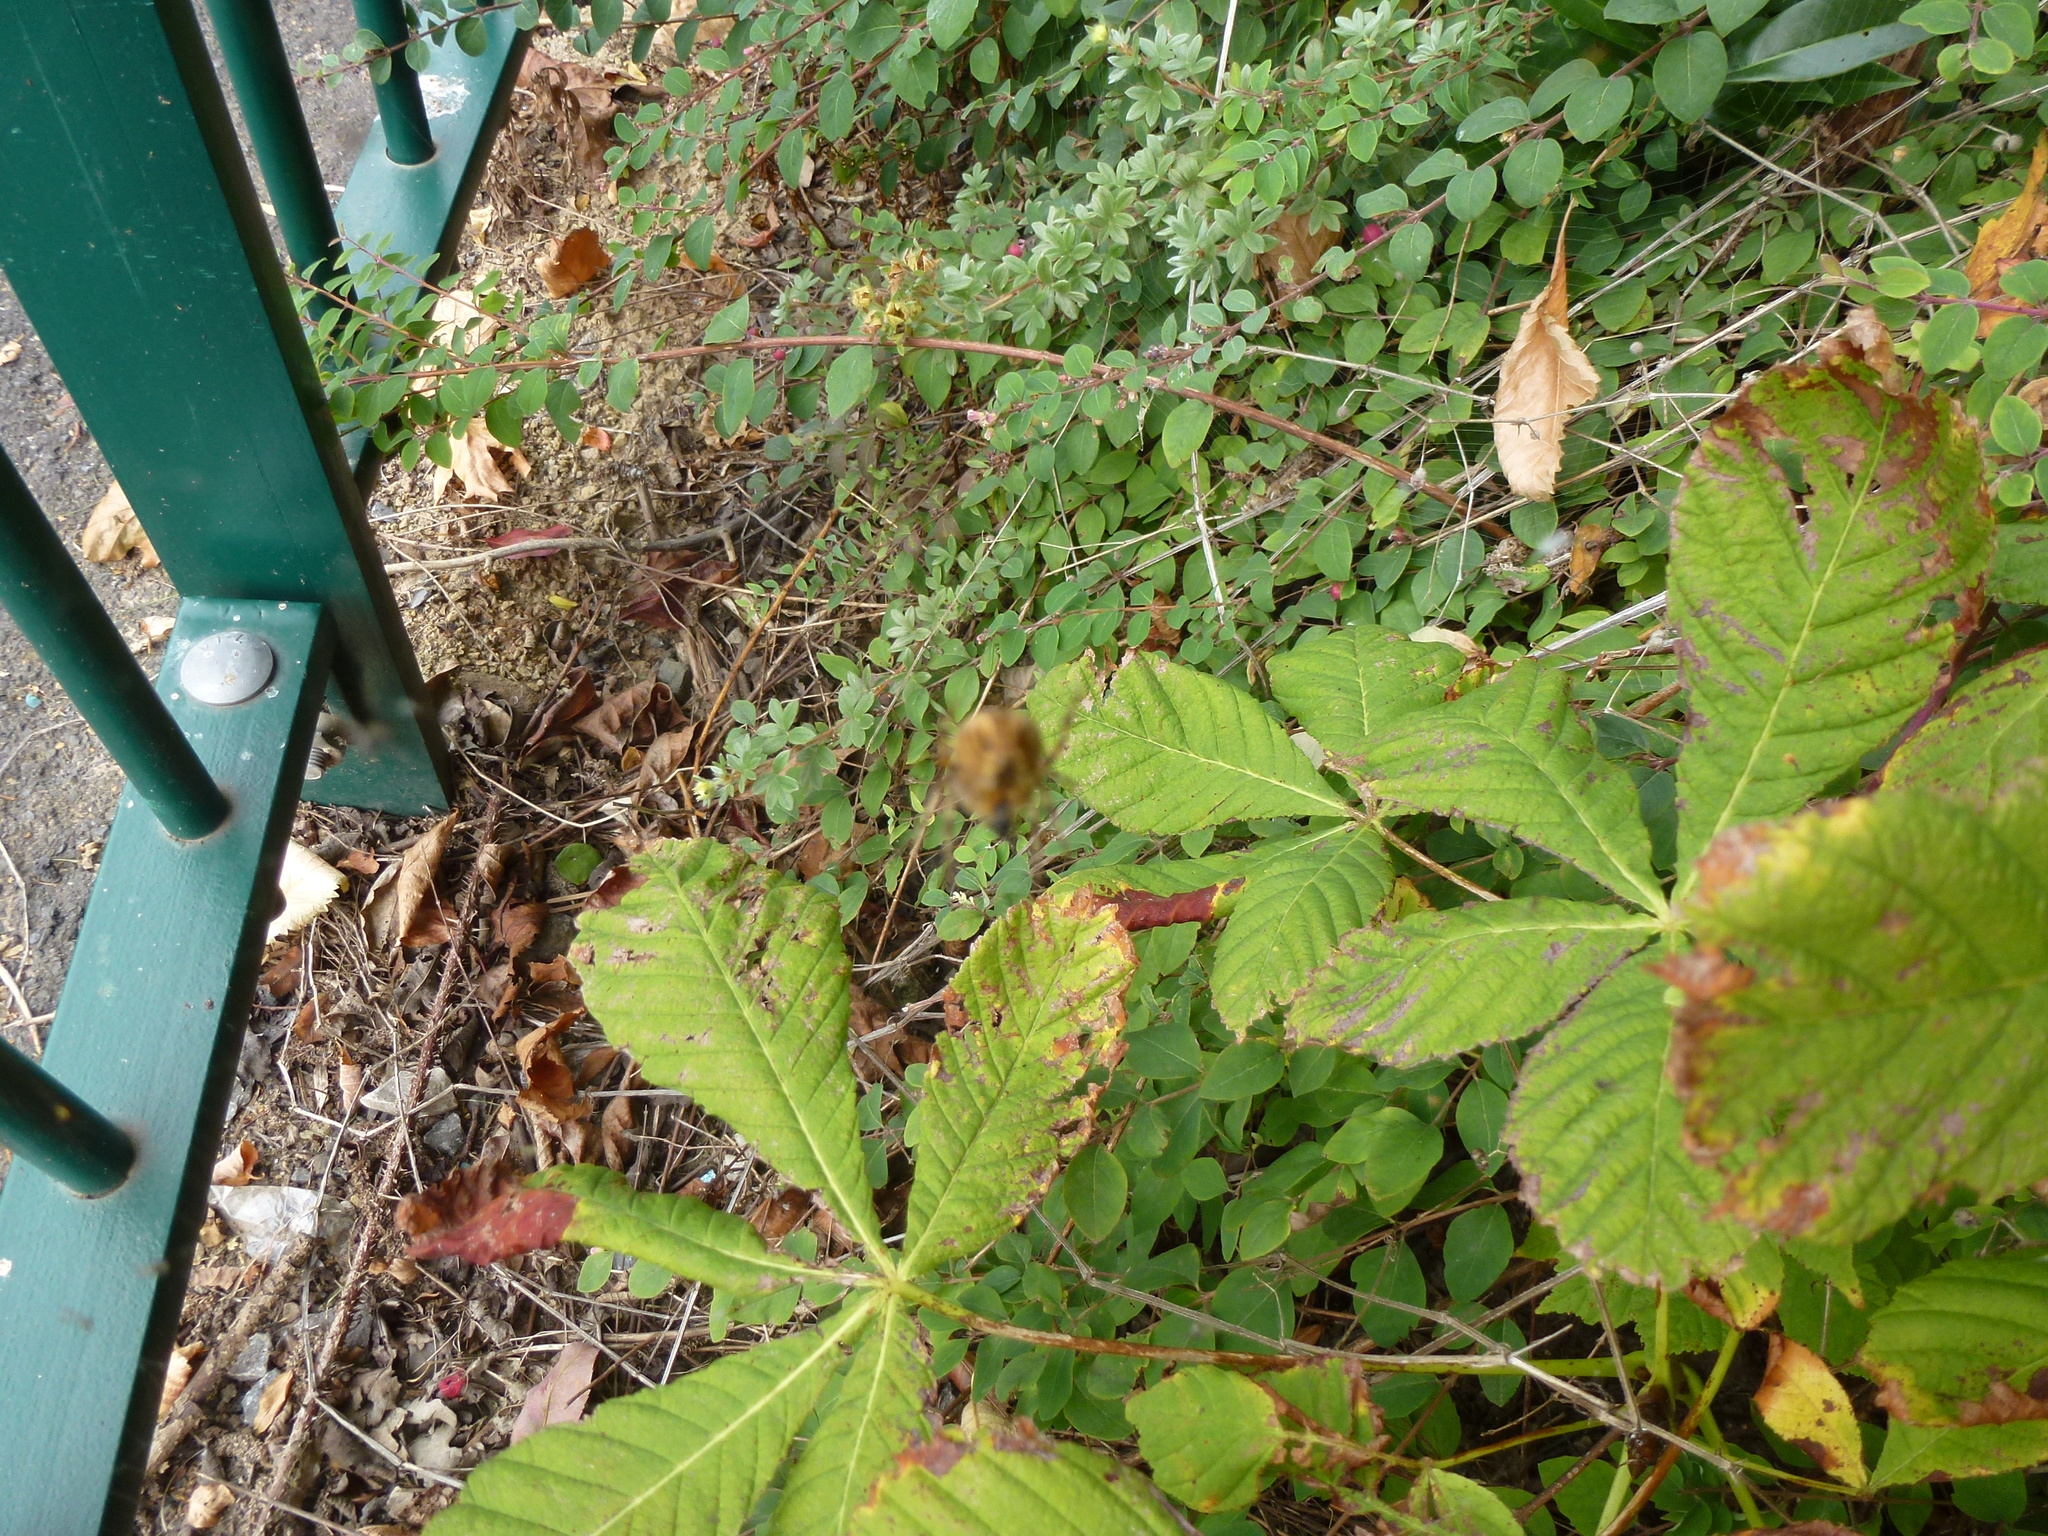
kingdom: Plantae
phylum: Tracheophyta
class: Magnoliopsida
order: Sapindales
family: Sapindaceae
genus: Aesculus
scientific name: Aesculus hippocastanum
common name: Horse-chestnut
